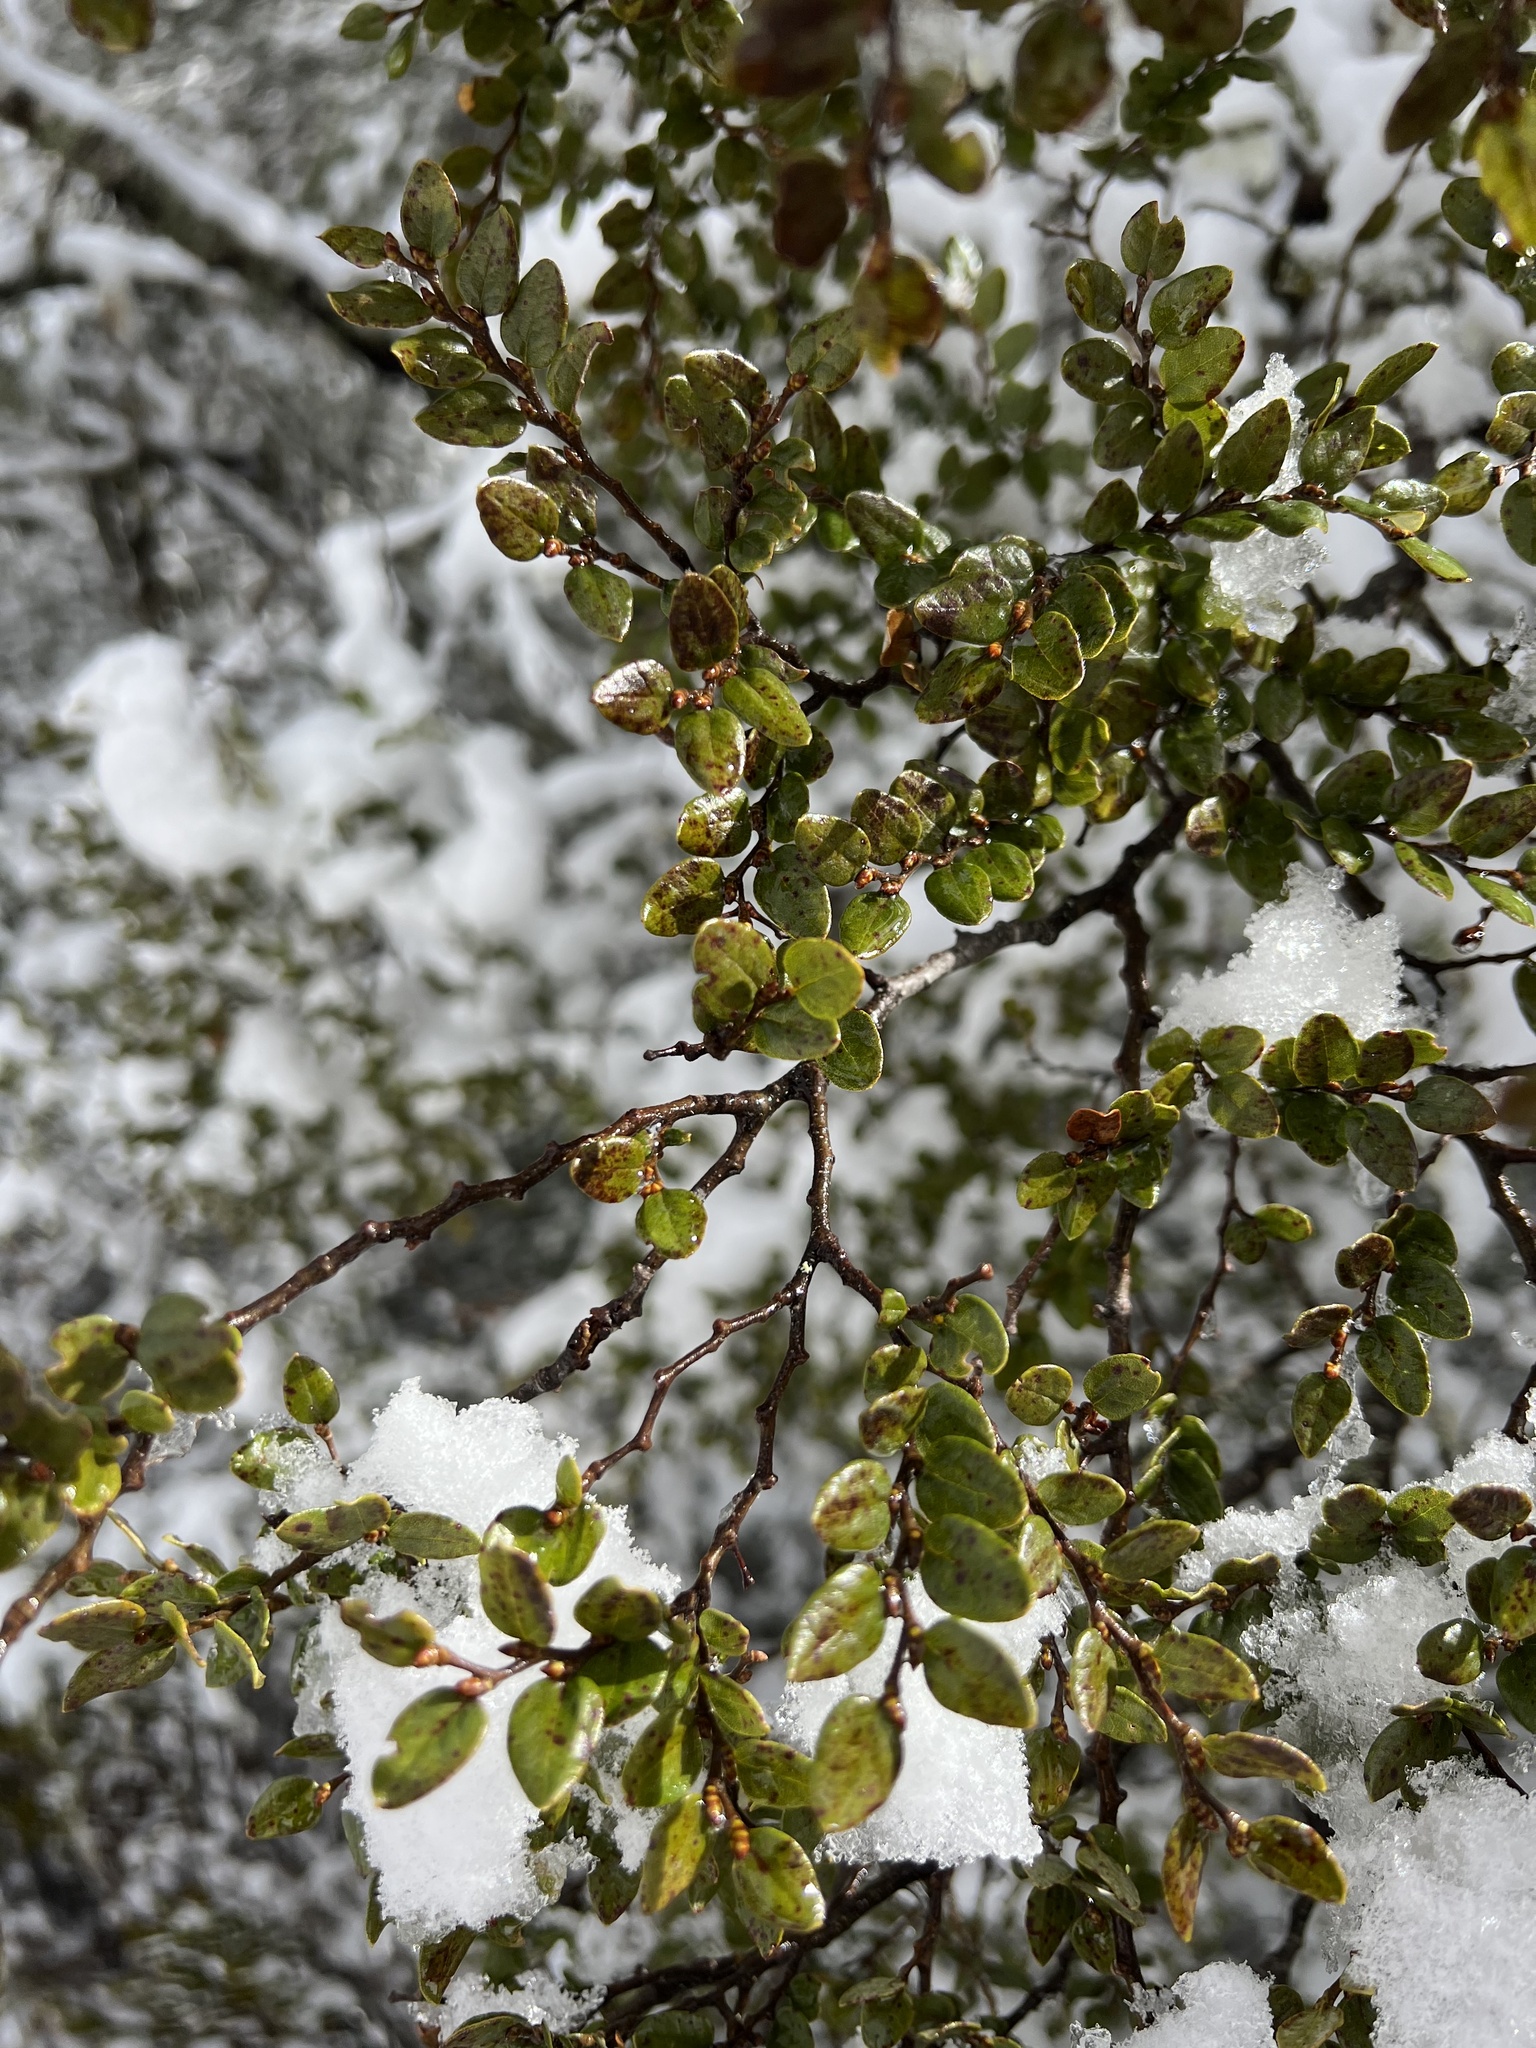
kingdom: Plantae
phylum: Tracheophyta
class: Magnoliopsida
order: Fagales
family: Nothofagaceae
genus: Nothofagus
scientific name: Nothofagus cliffortioides
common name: Mountain beech
